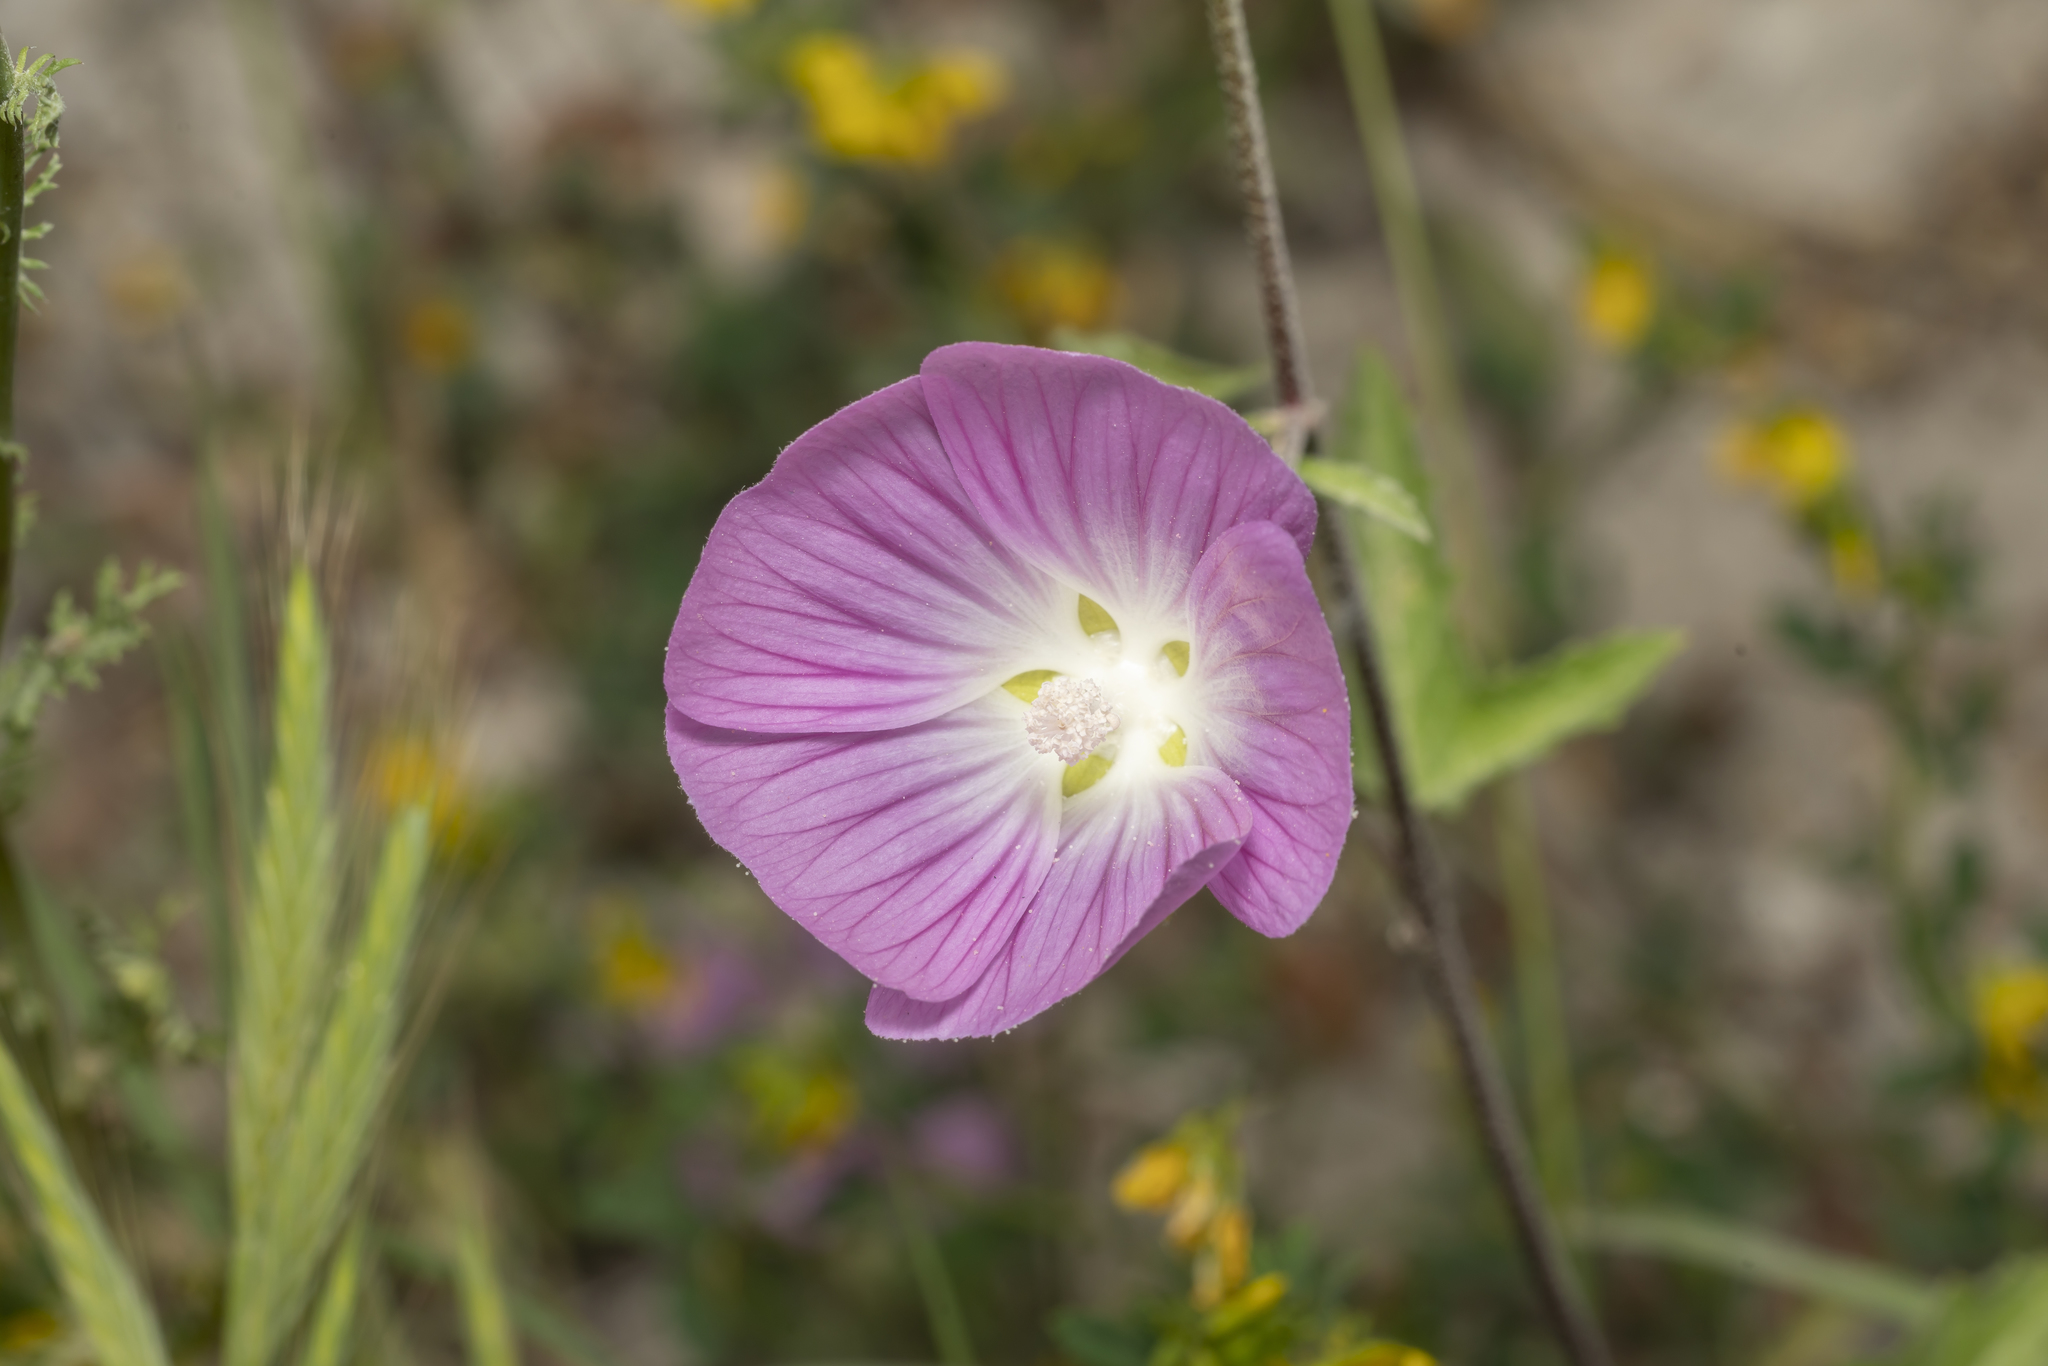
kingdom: Plantae
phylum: Tracheophyta
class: Magnoliopsida
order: Malvales
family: Malvaceae
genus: Malva
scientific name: Malva punctata
